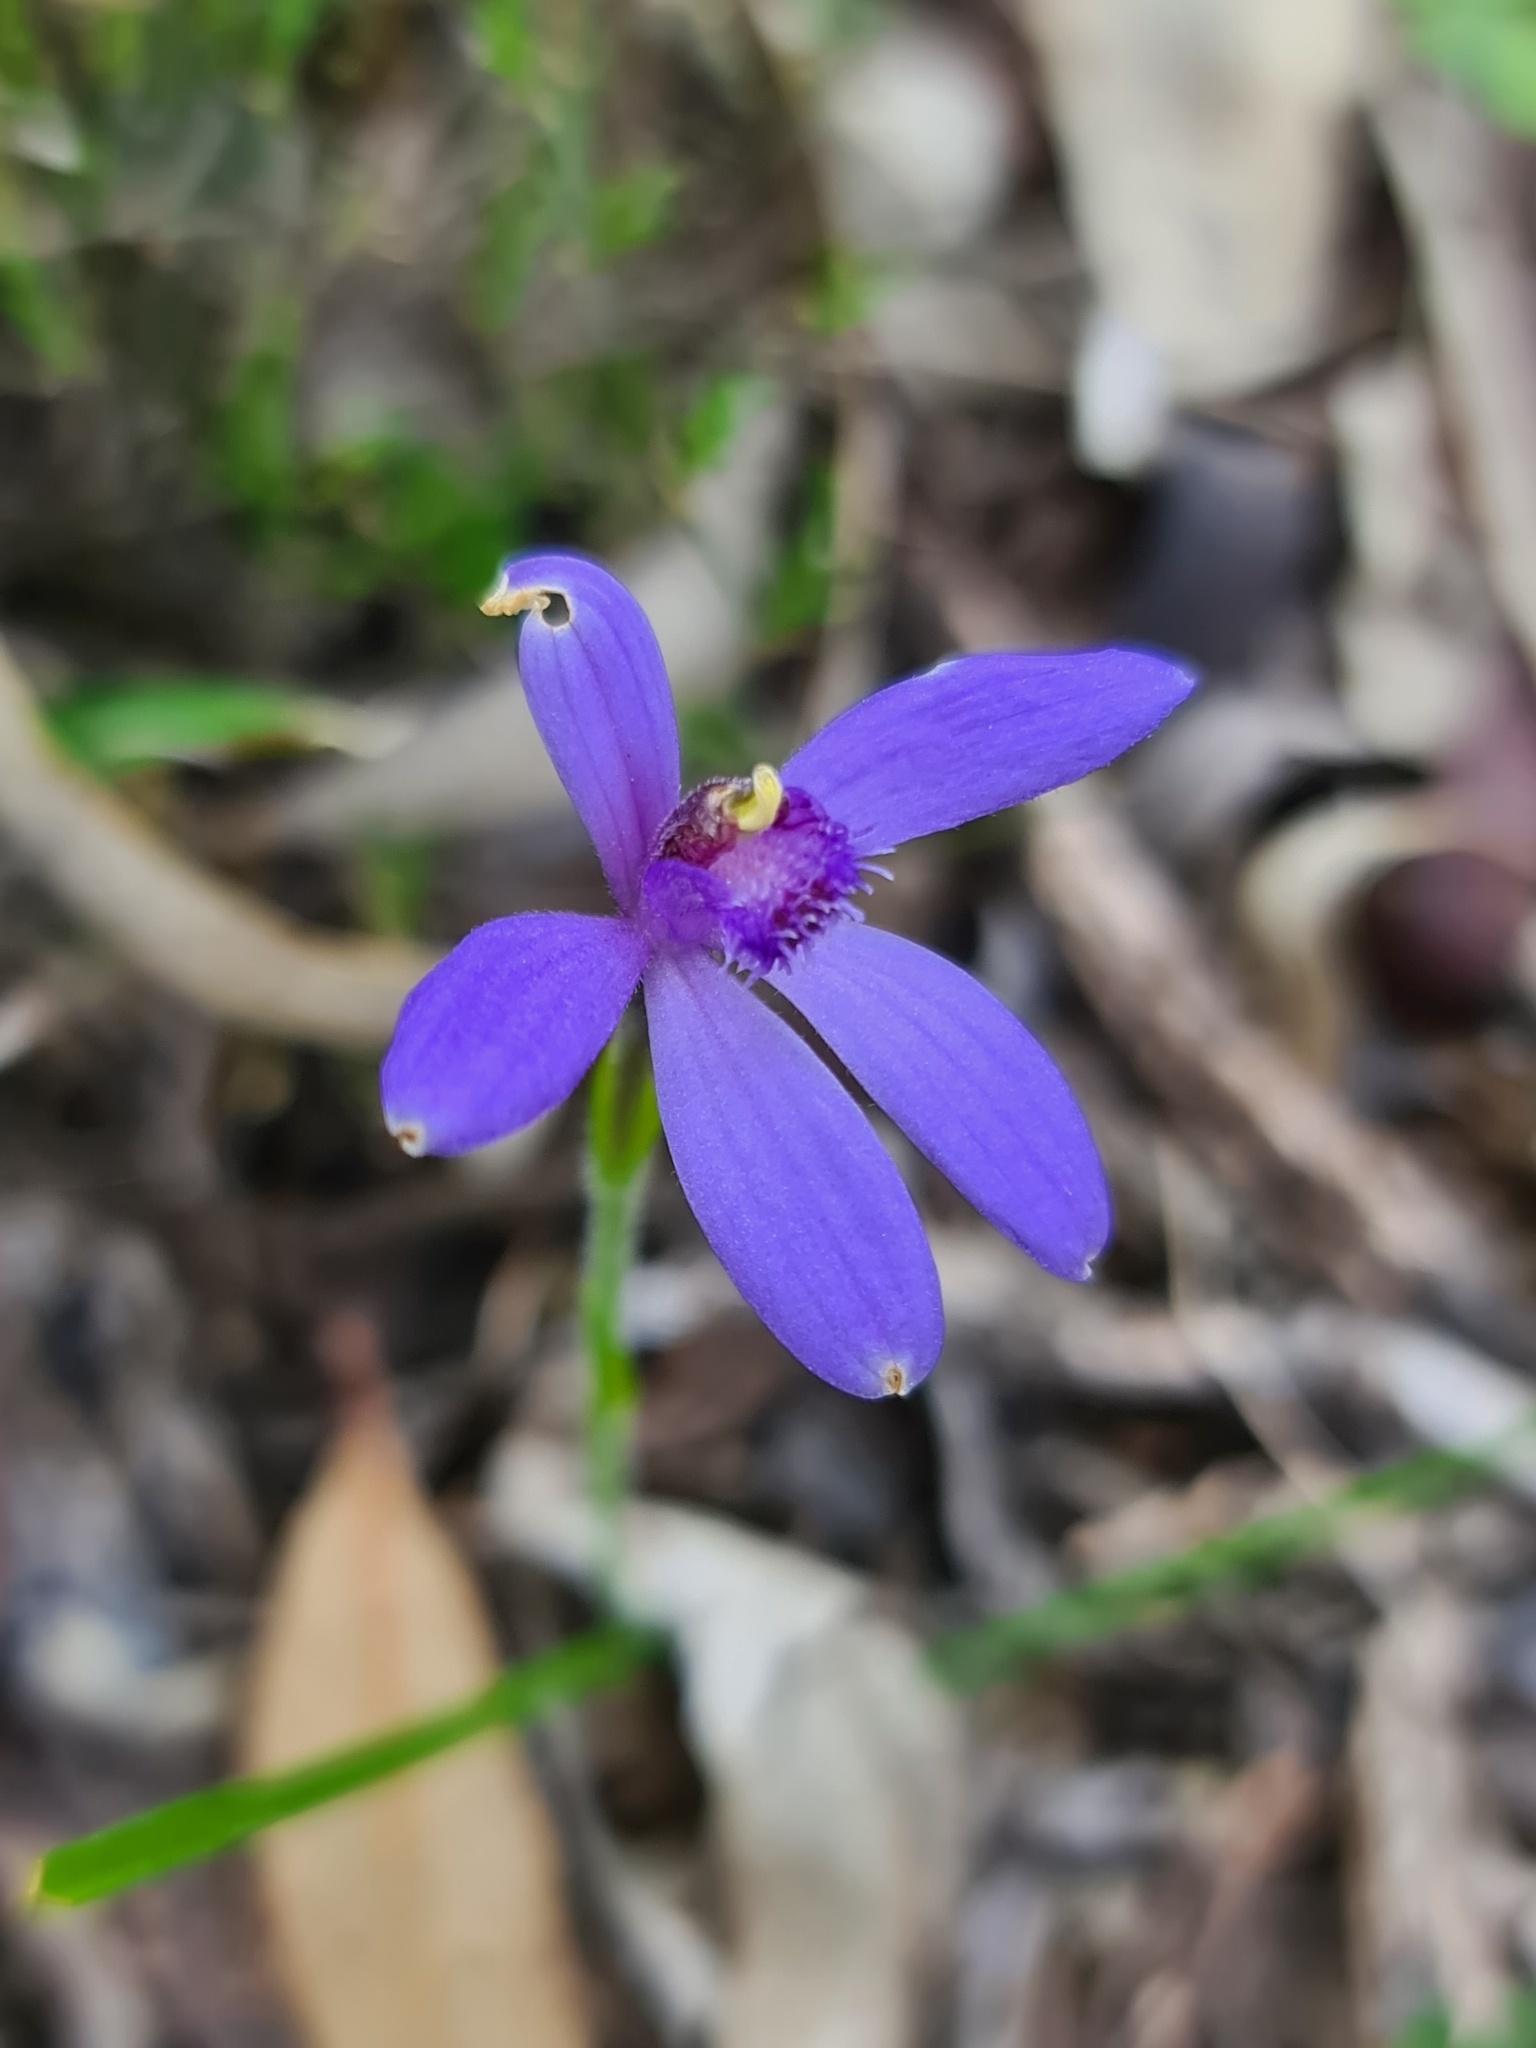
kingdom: Plantae
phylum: Tracheophyta
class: Liliopsida
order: Asparagales
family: Orchidaceae
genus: Pheladenia
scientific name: Pheladenia deformis
